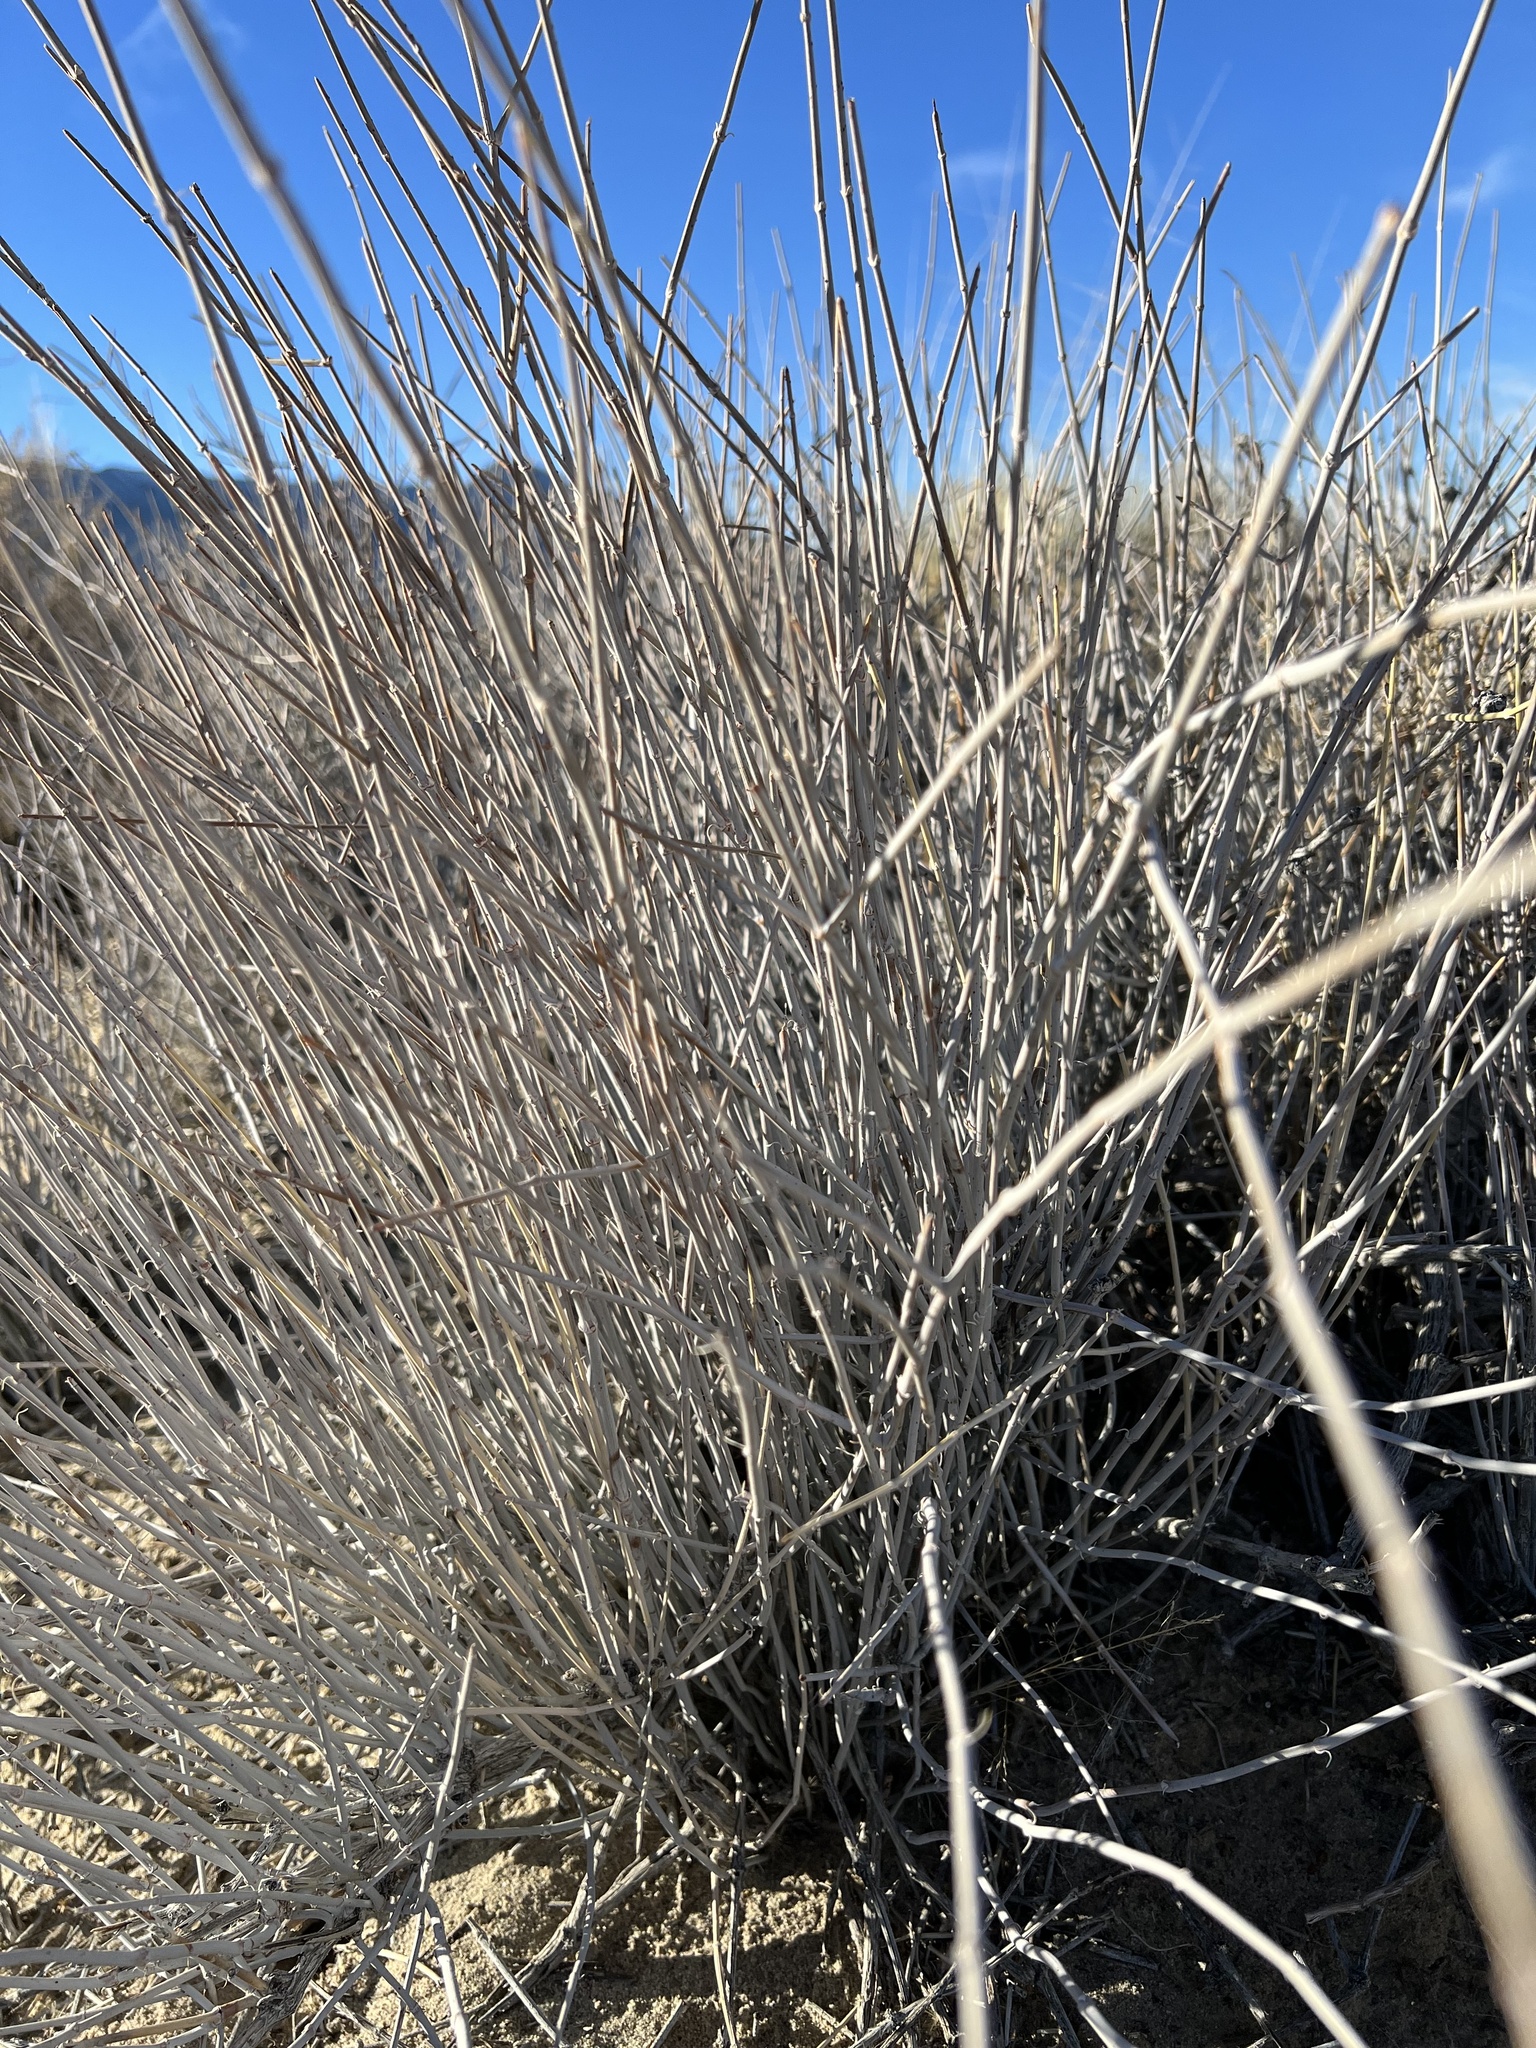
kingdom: Plantae
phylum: Tracheophyta
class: Gnetopsida
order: Ephedrales
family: Ephedraceae
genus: Ephedra
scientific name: Ephedra nevadensis
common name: Gray ephedra
